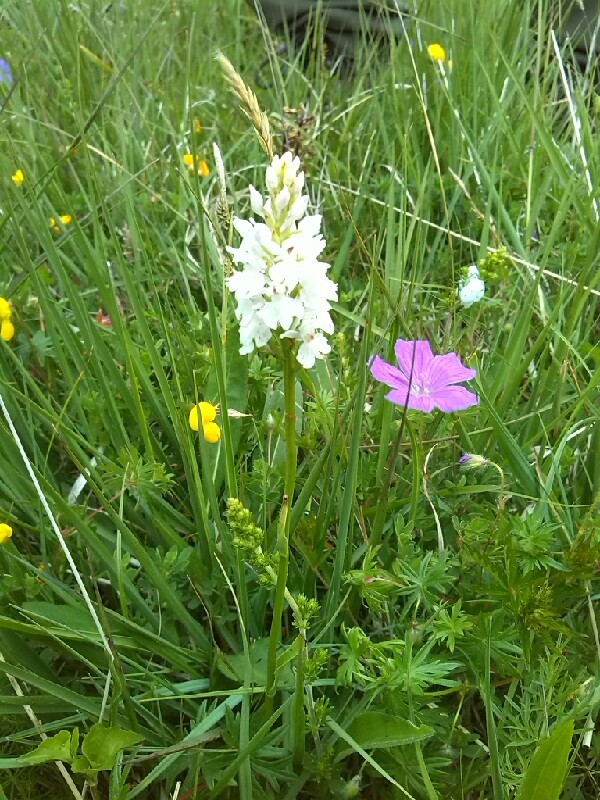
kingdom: Plantae
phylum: Tracheophyta
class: Liliopsida
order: Asparagales
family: Orchidaceae
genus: Dactylorhiza
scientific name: Dactylorhiza maculata
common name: Heath spotted-orchid
